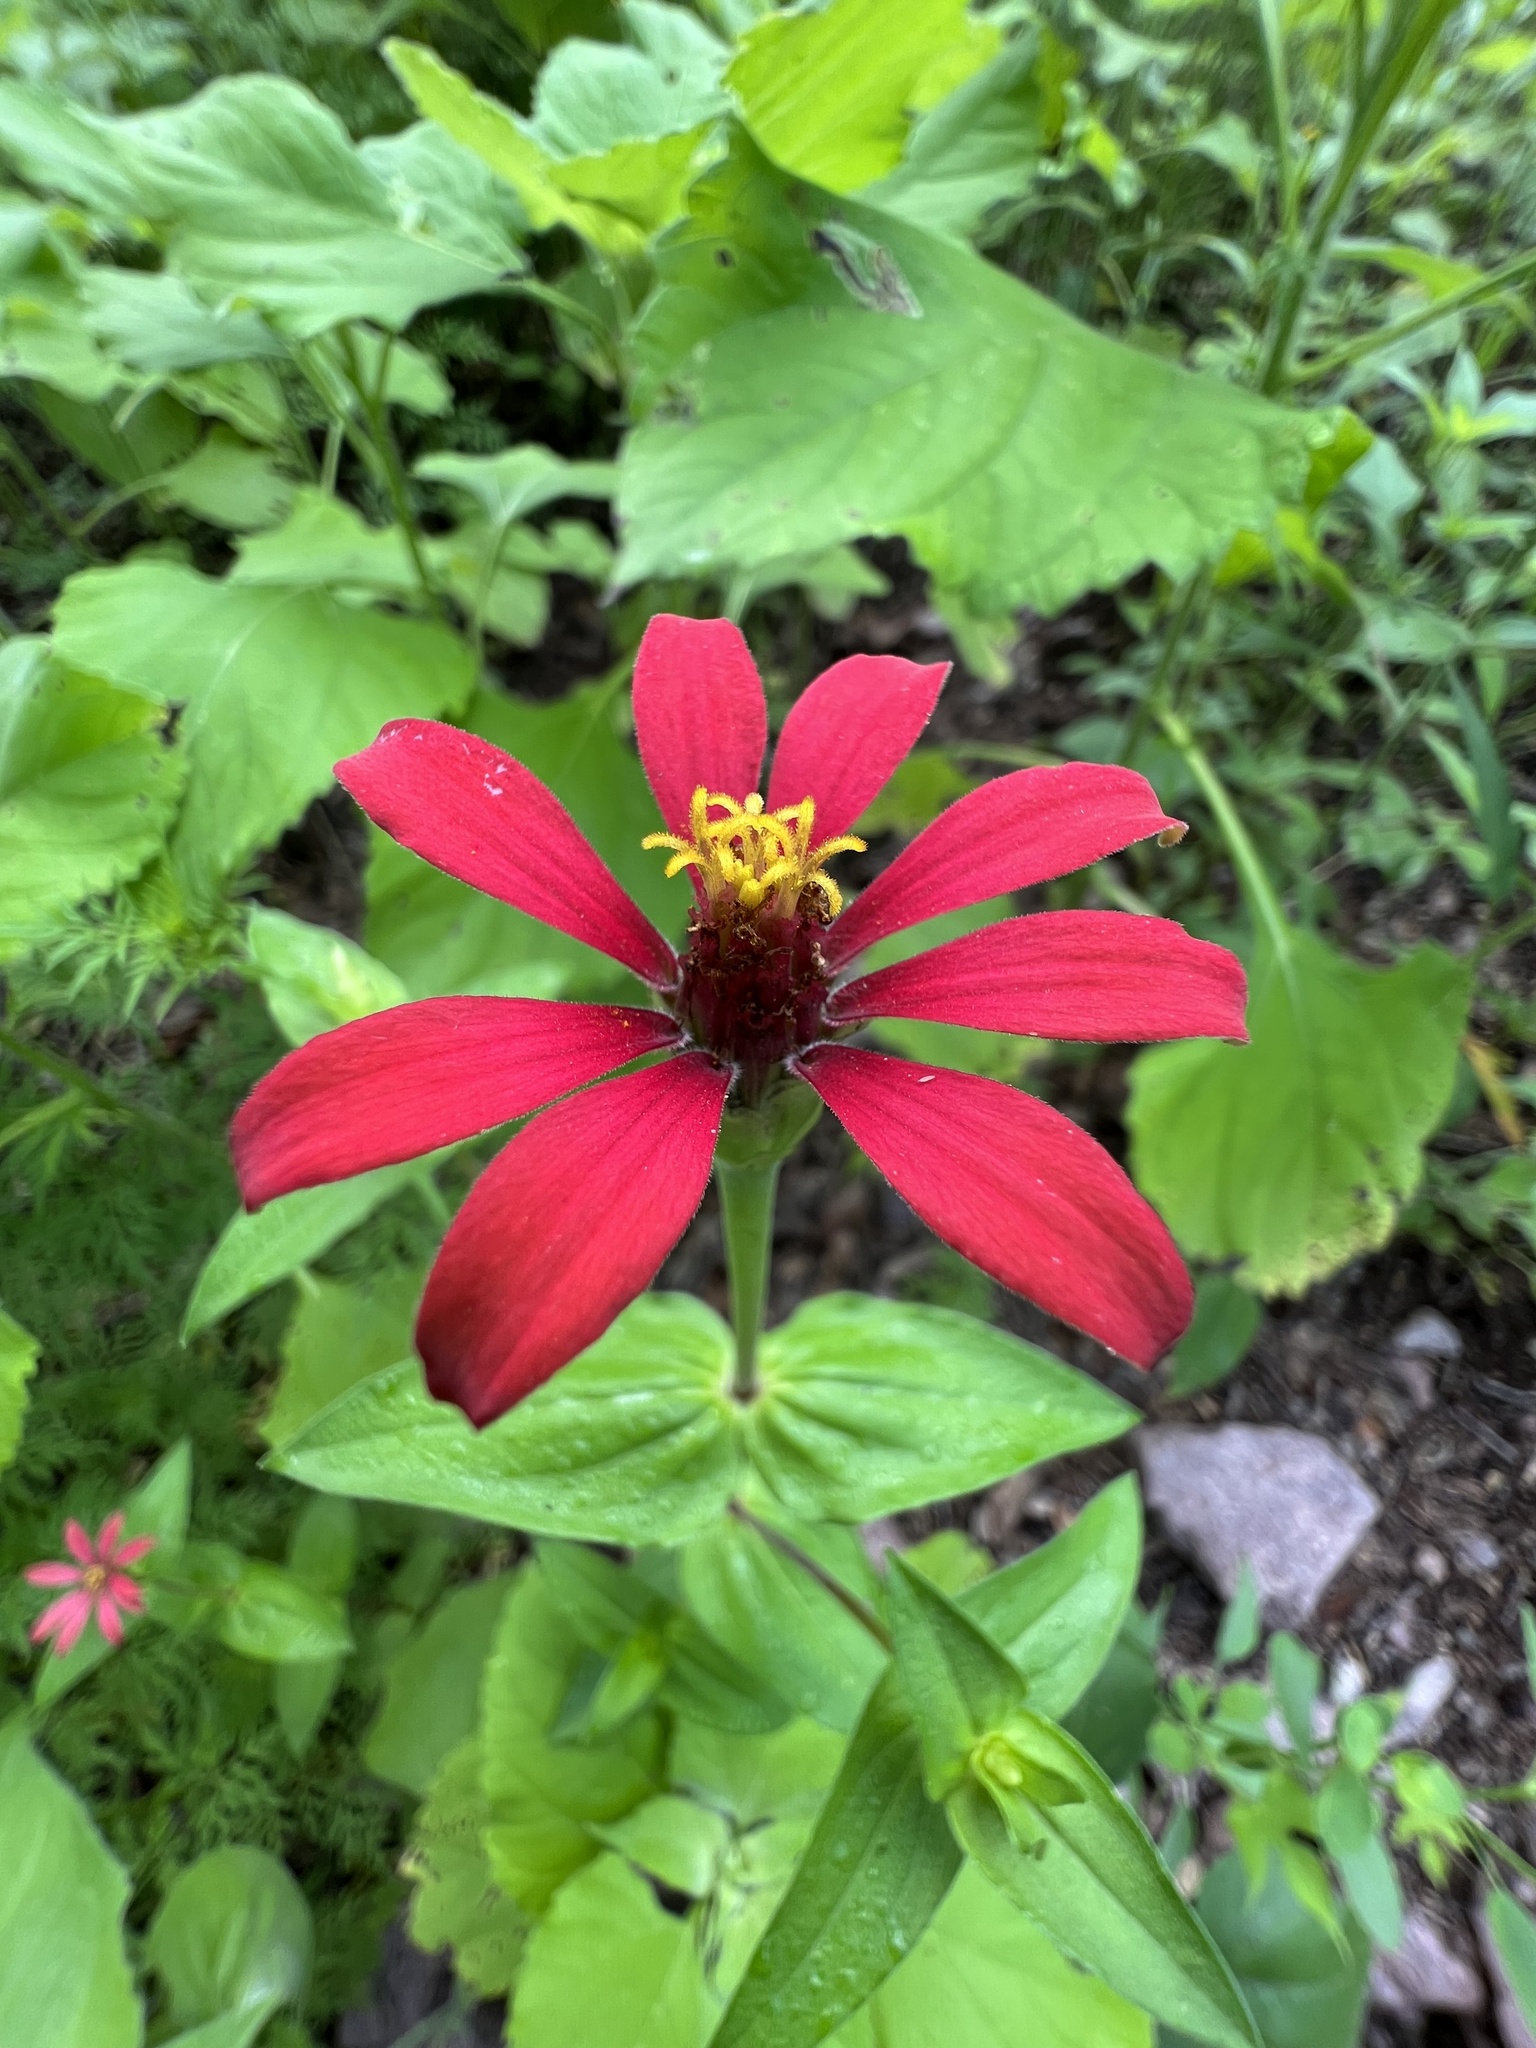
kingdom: Plantae
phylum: Tracheophyta
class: Magnoliopsida
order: Asterales
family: Asteraceae
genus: Zinnia
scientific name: Zinnia peruviana
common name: Peruvian zinnia
